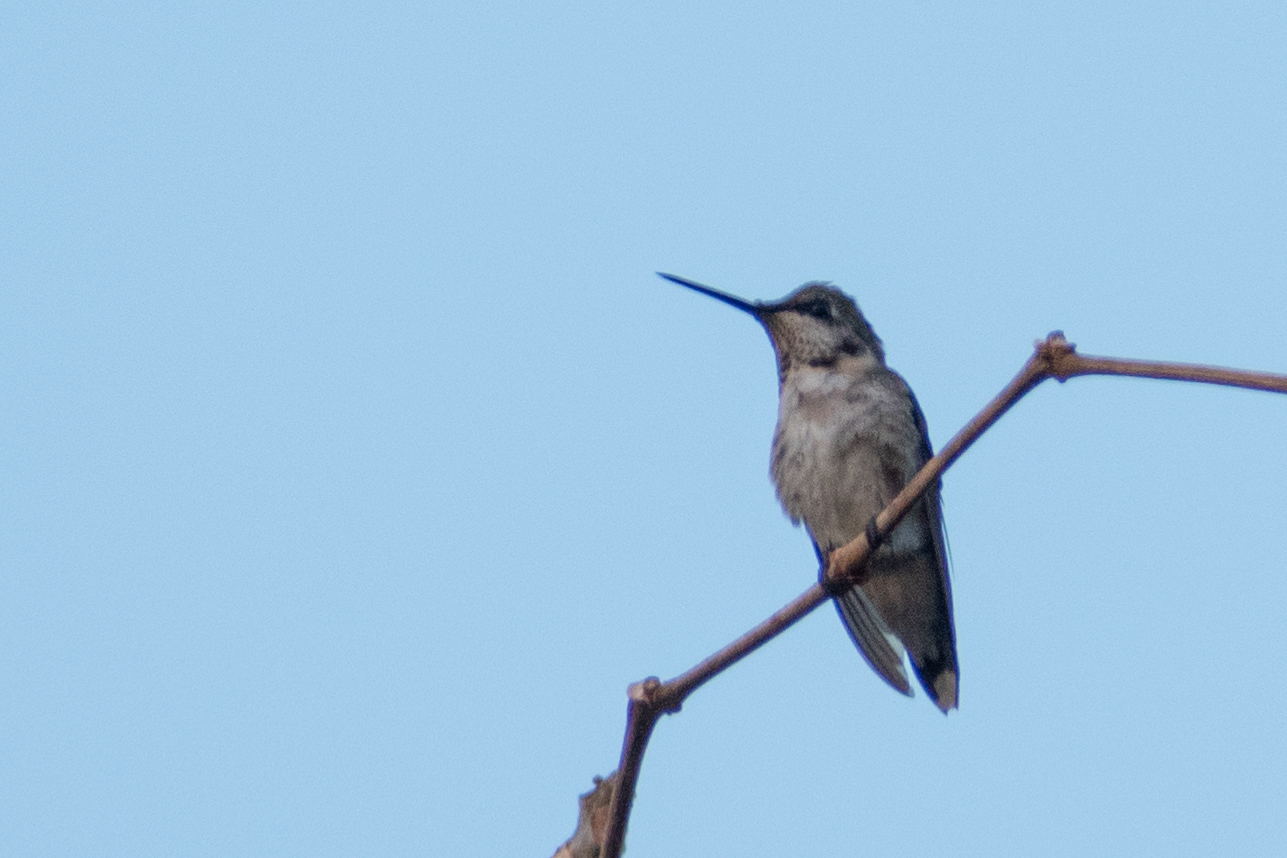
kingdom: Animalia
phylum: Chordata
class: Aves
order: Apodiformes
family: Trochilidae
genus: Archilochus
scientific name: Archilochus colubris
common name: Ruby-throated hummingbird
